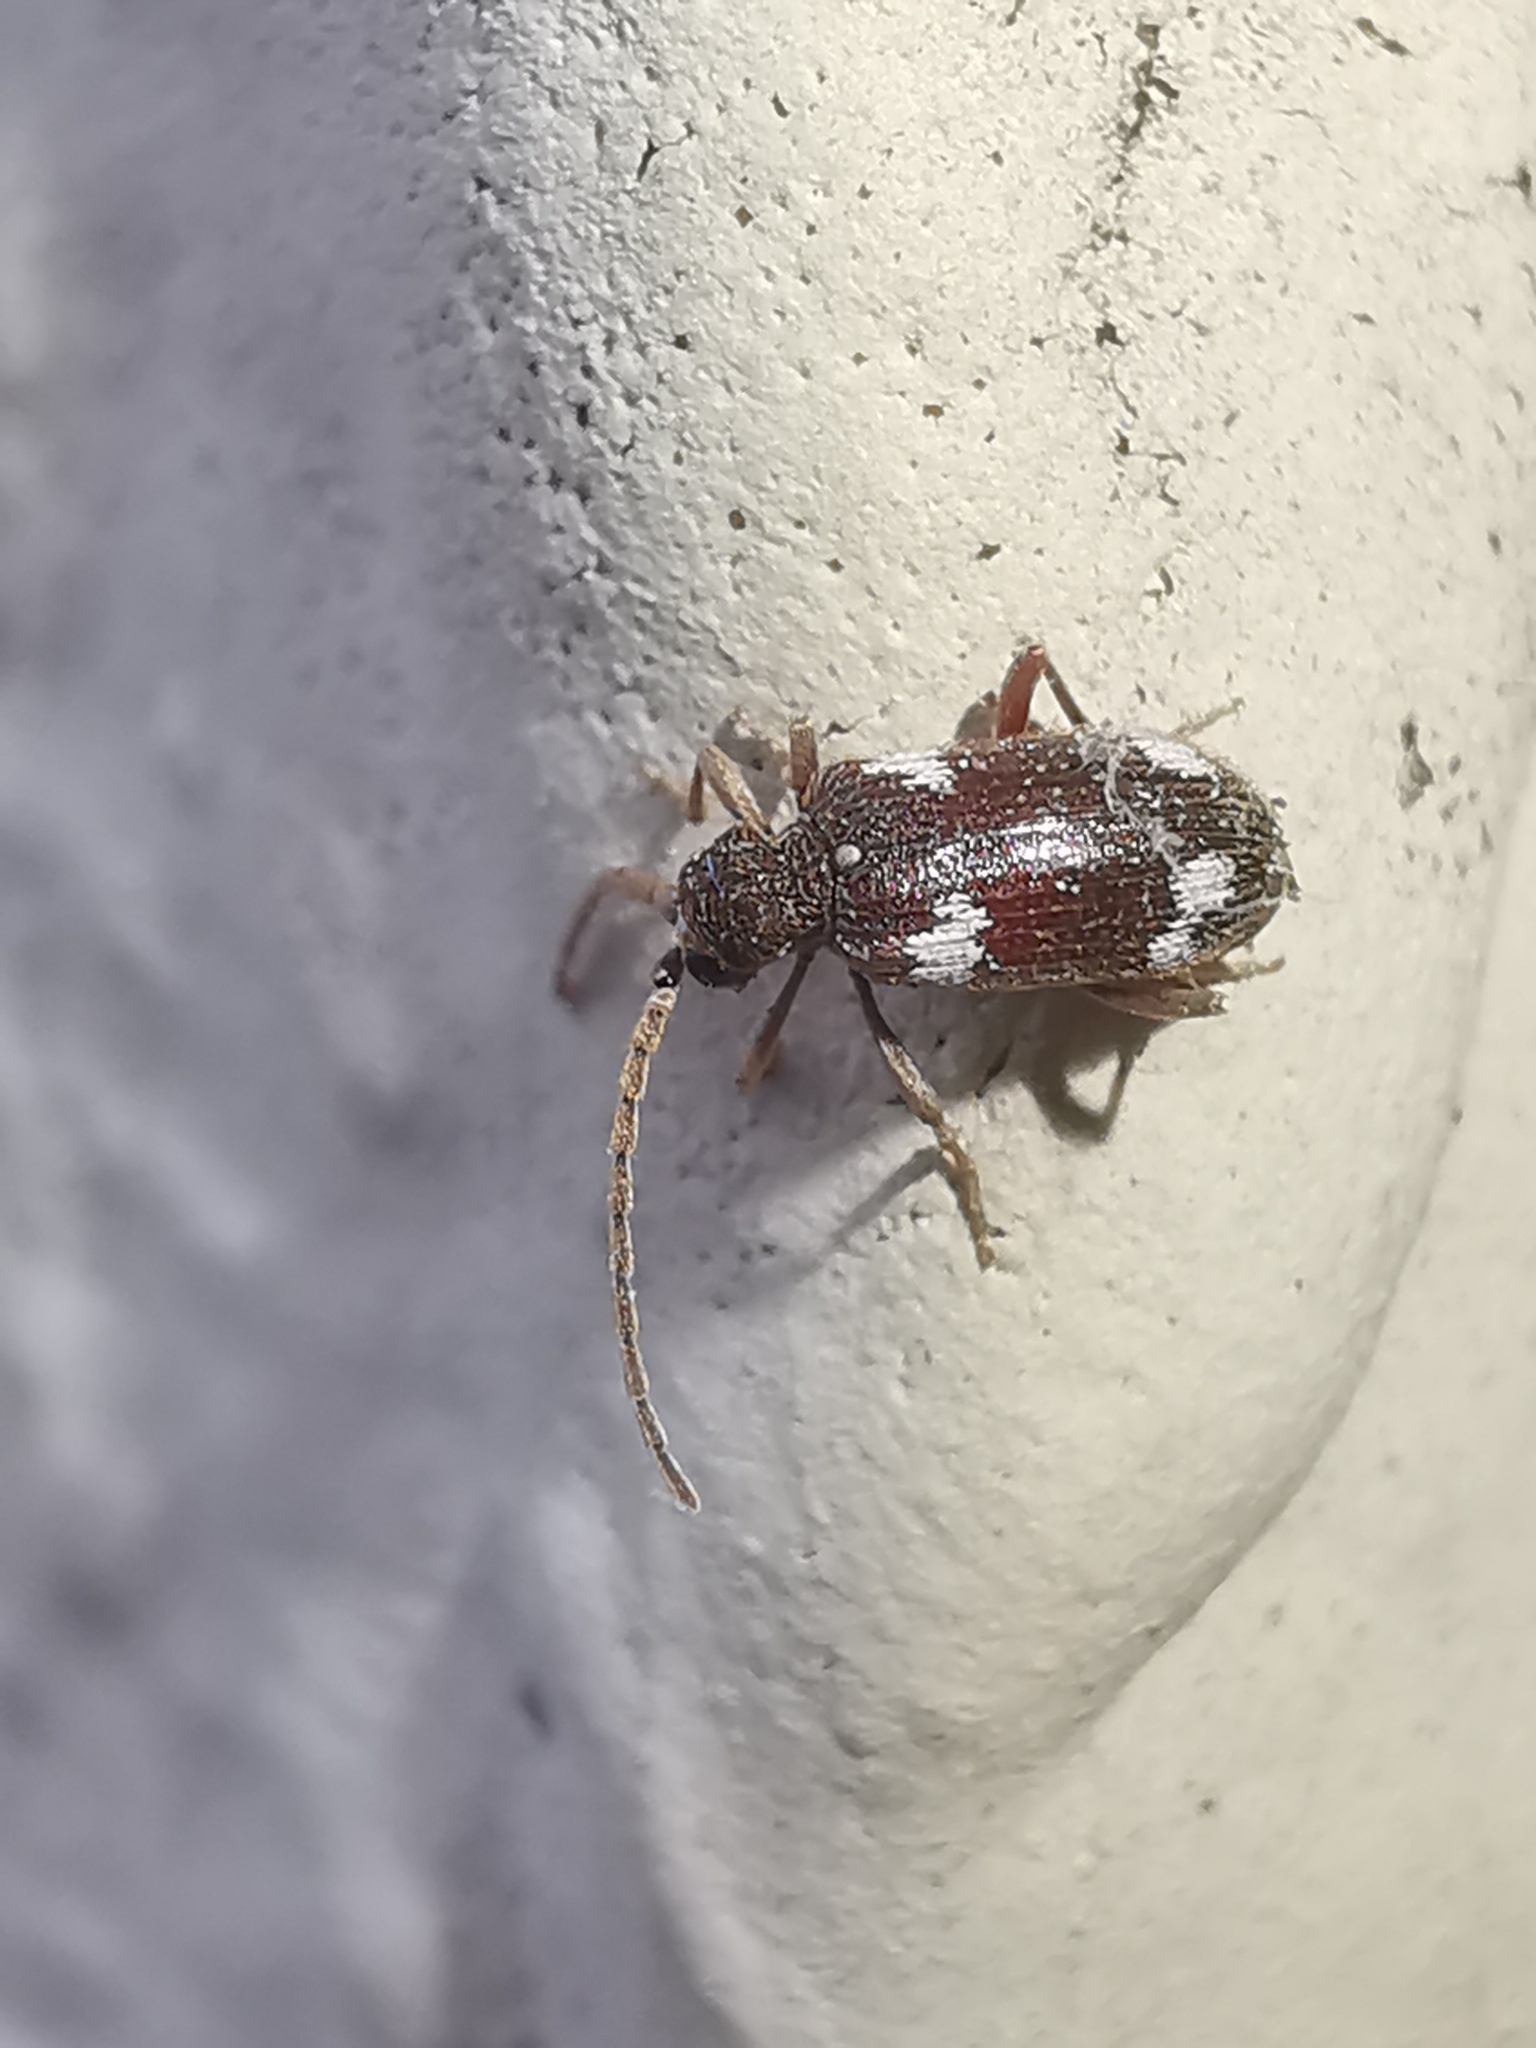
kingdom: Animalia
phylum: Arthropoda
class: Insecta
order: Coleoptera
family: Ptinidae
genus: Ptinus
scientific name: Ptinus sexpunctatus
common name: Six-spotted spider beetle
